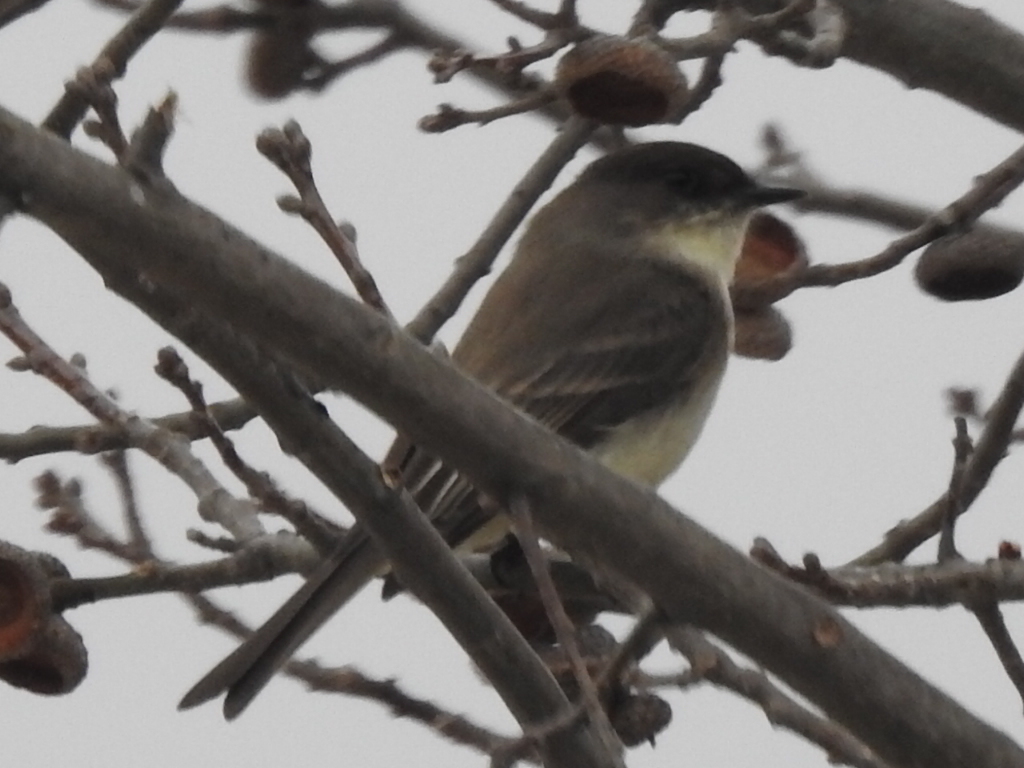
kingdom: Animalia
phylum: Chordata
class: Aves
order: Passeriformes
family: Tyrannidae
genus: Sayornis
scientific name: Sayornis phoebe
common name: Eastern phoebe
